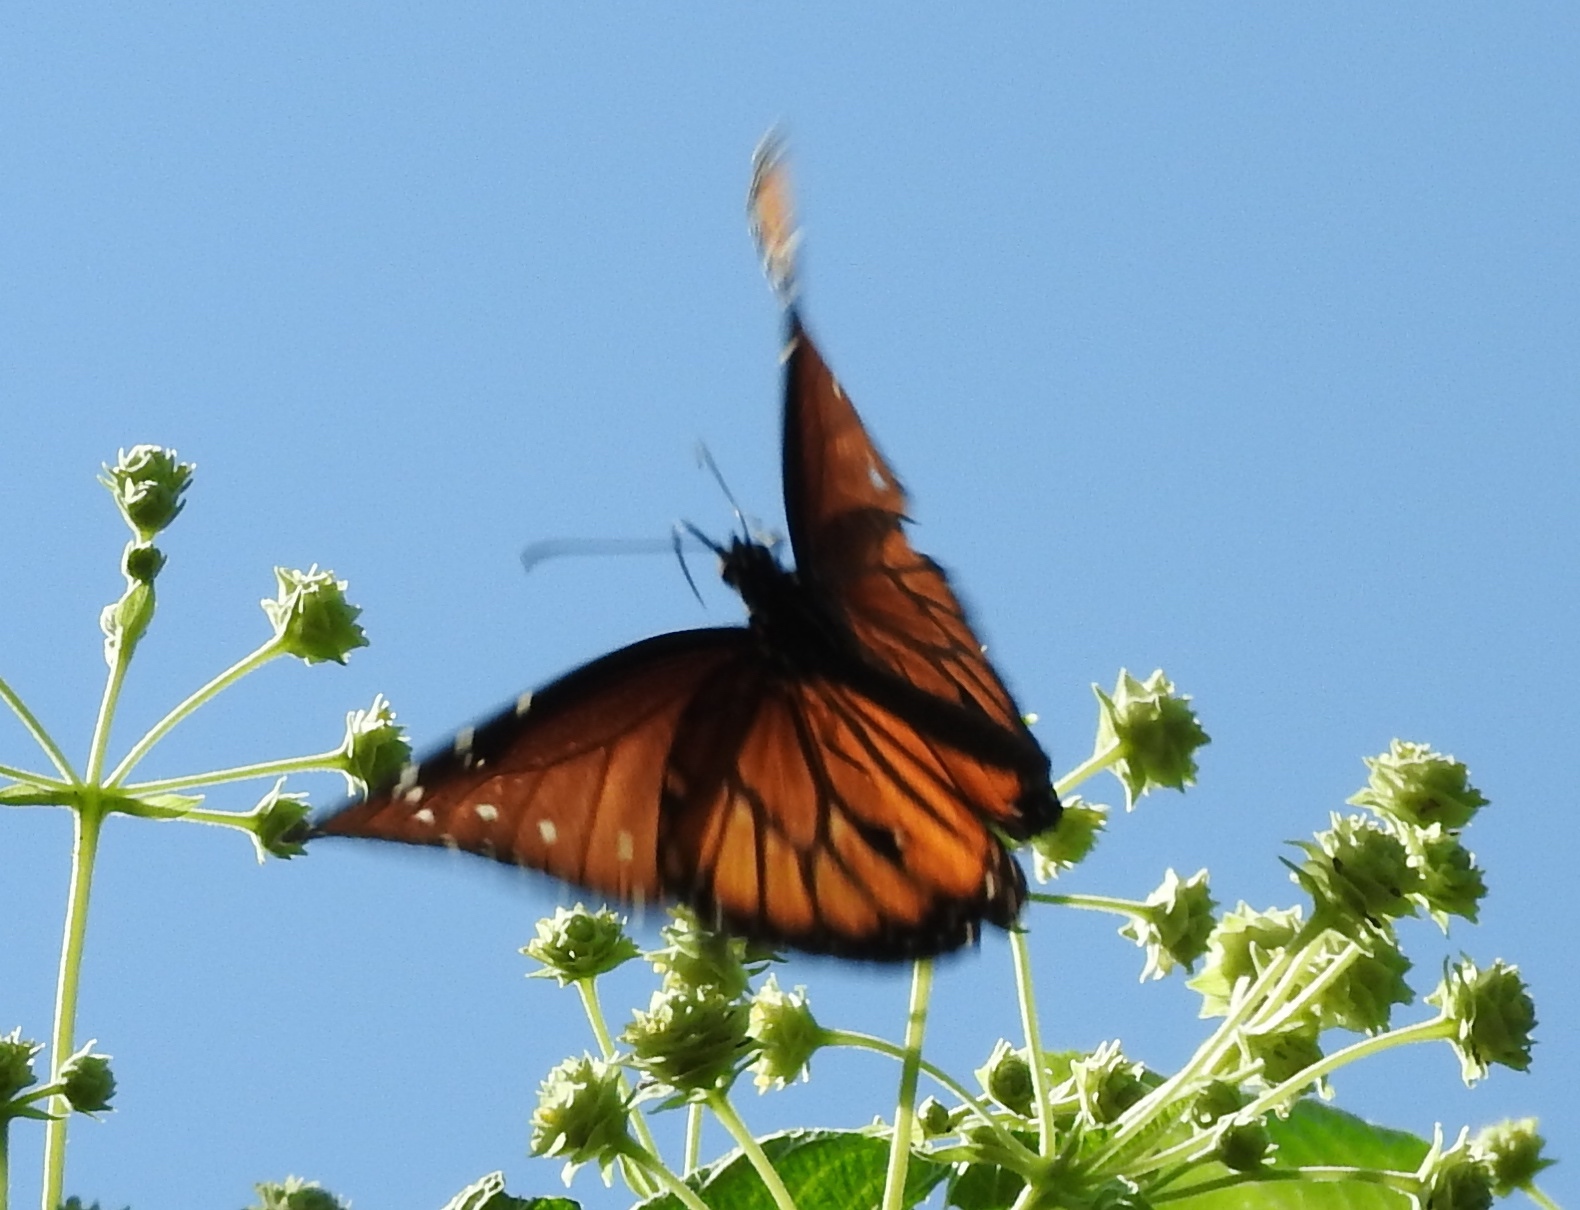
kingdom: Animalia
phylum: Arthropoda
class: Insecta
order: Lepidoptera
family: Nymphalidae
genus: Danaus
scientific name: Danaus gilippus
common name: Queen
